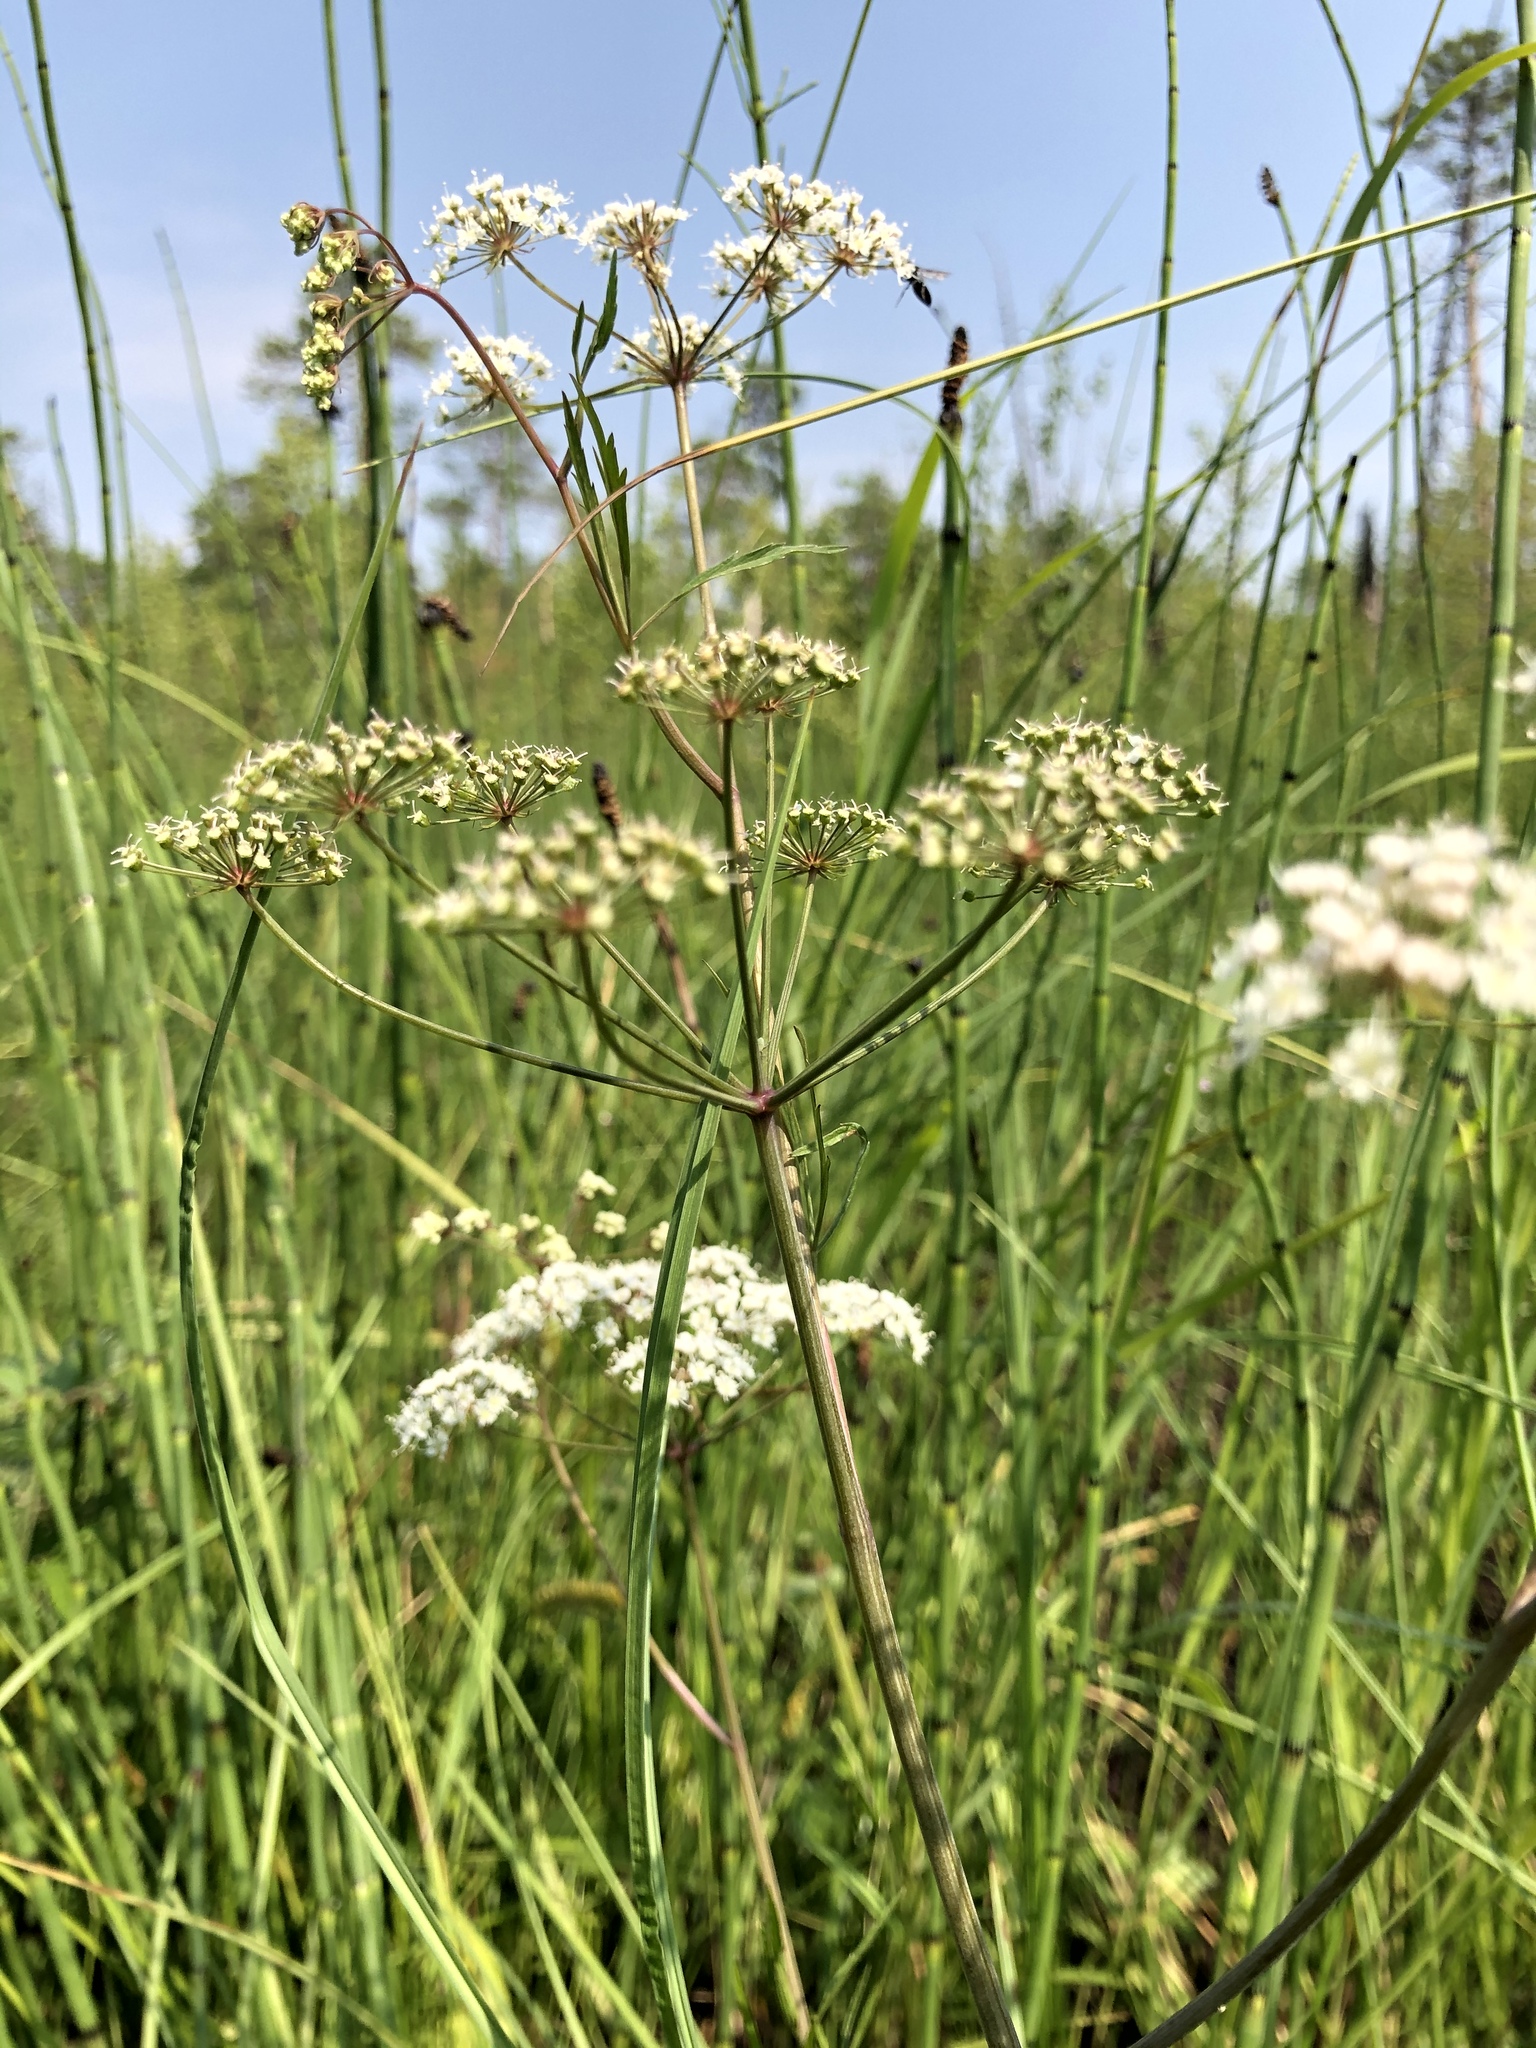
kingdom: Plantae
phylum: Tracheophyta
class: Magnoliopsida
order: Apiales
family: Apiaceae
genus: Cicuta
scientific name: Cicuta virosa
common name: Cowbane
